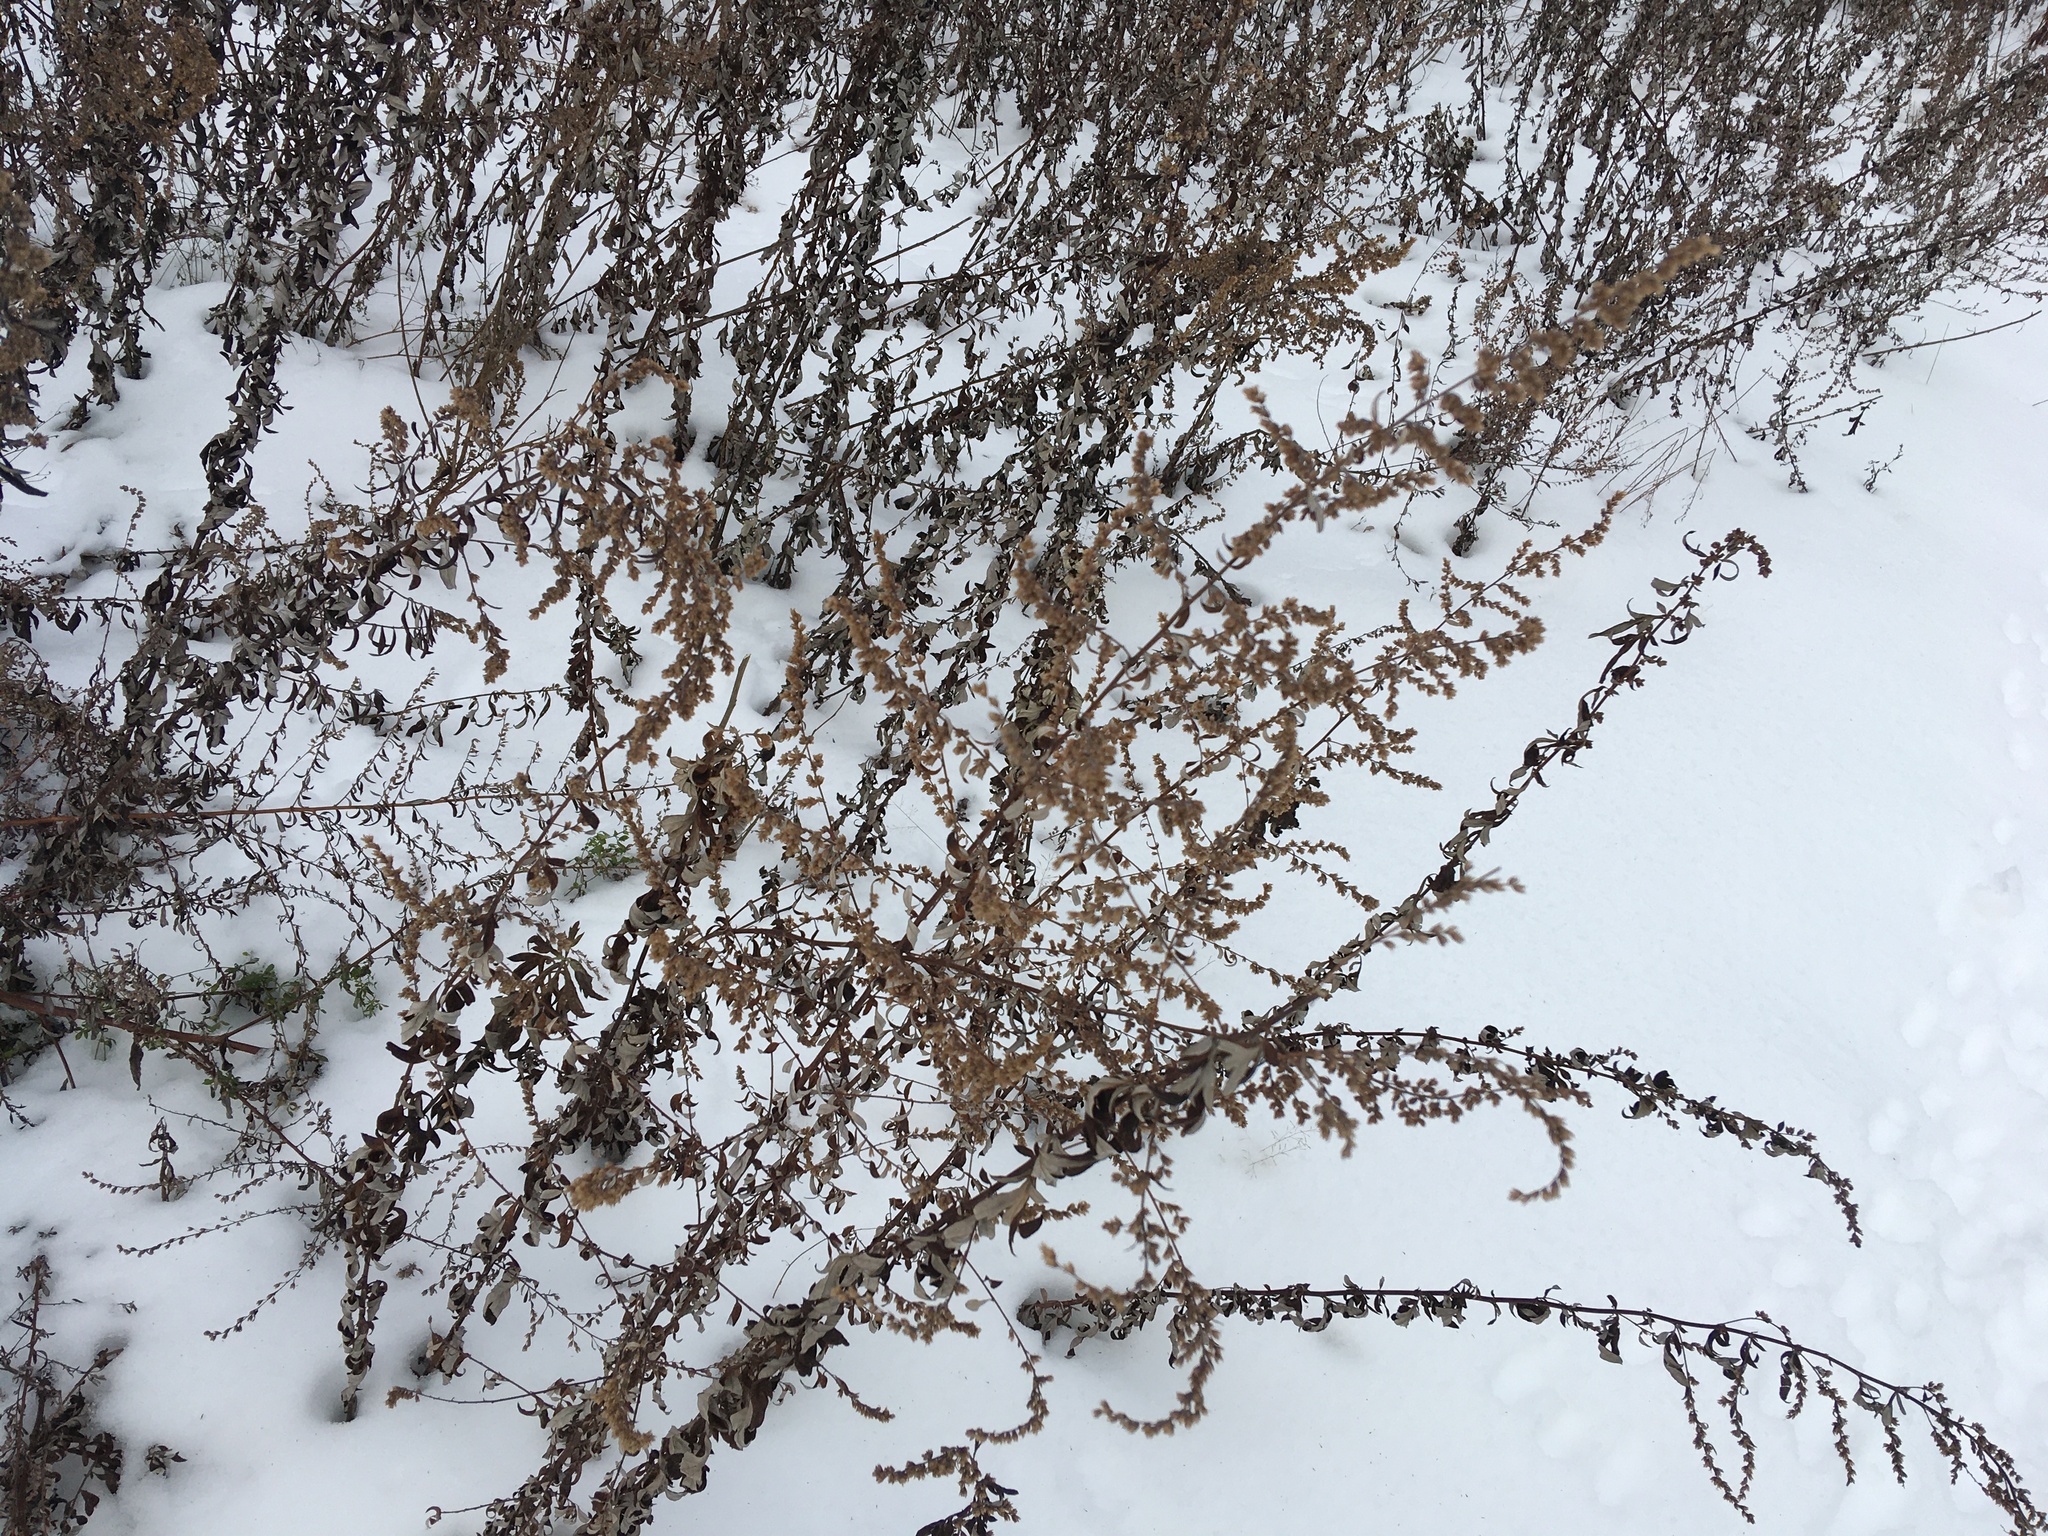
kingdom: Plantae
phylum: Tracheophyta
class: Magnoliopsida
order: Asterales
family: Asteraceae
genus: Artemisia
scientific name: Artemisia vulgaris
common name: Mugwort
